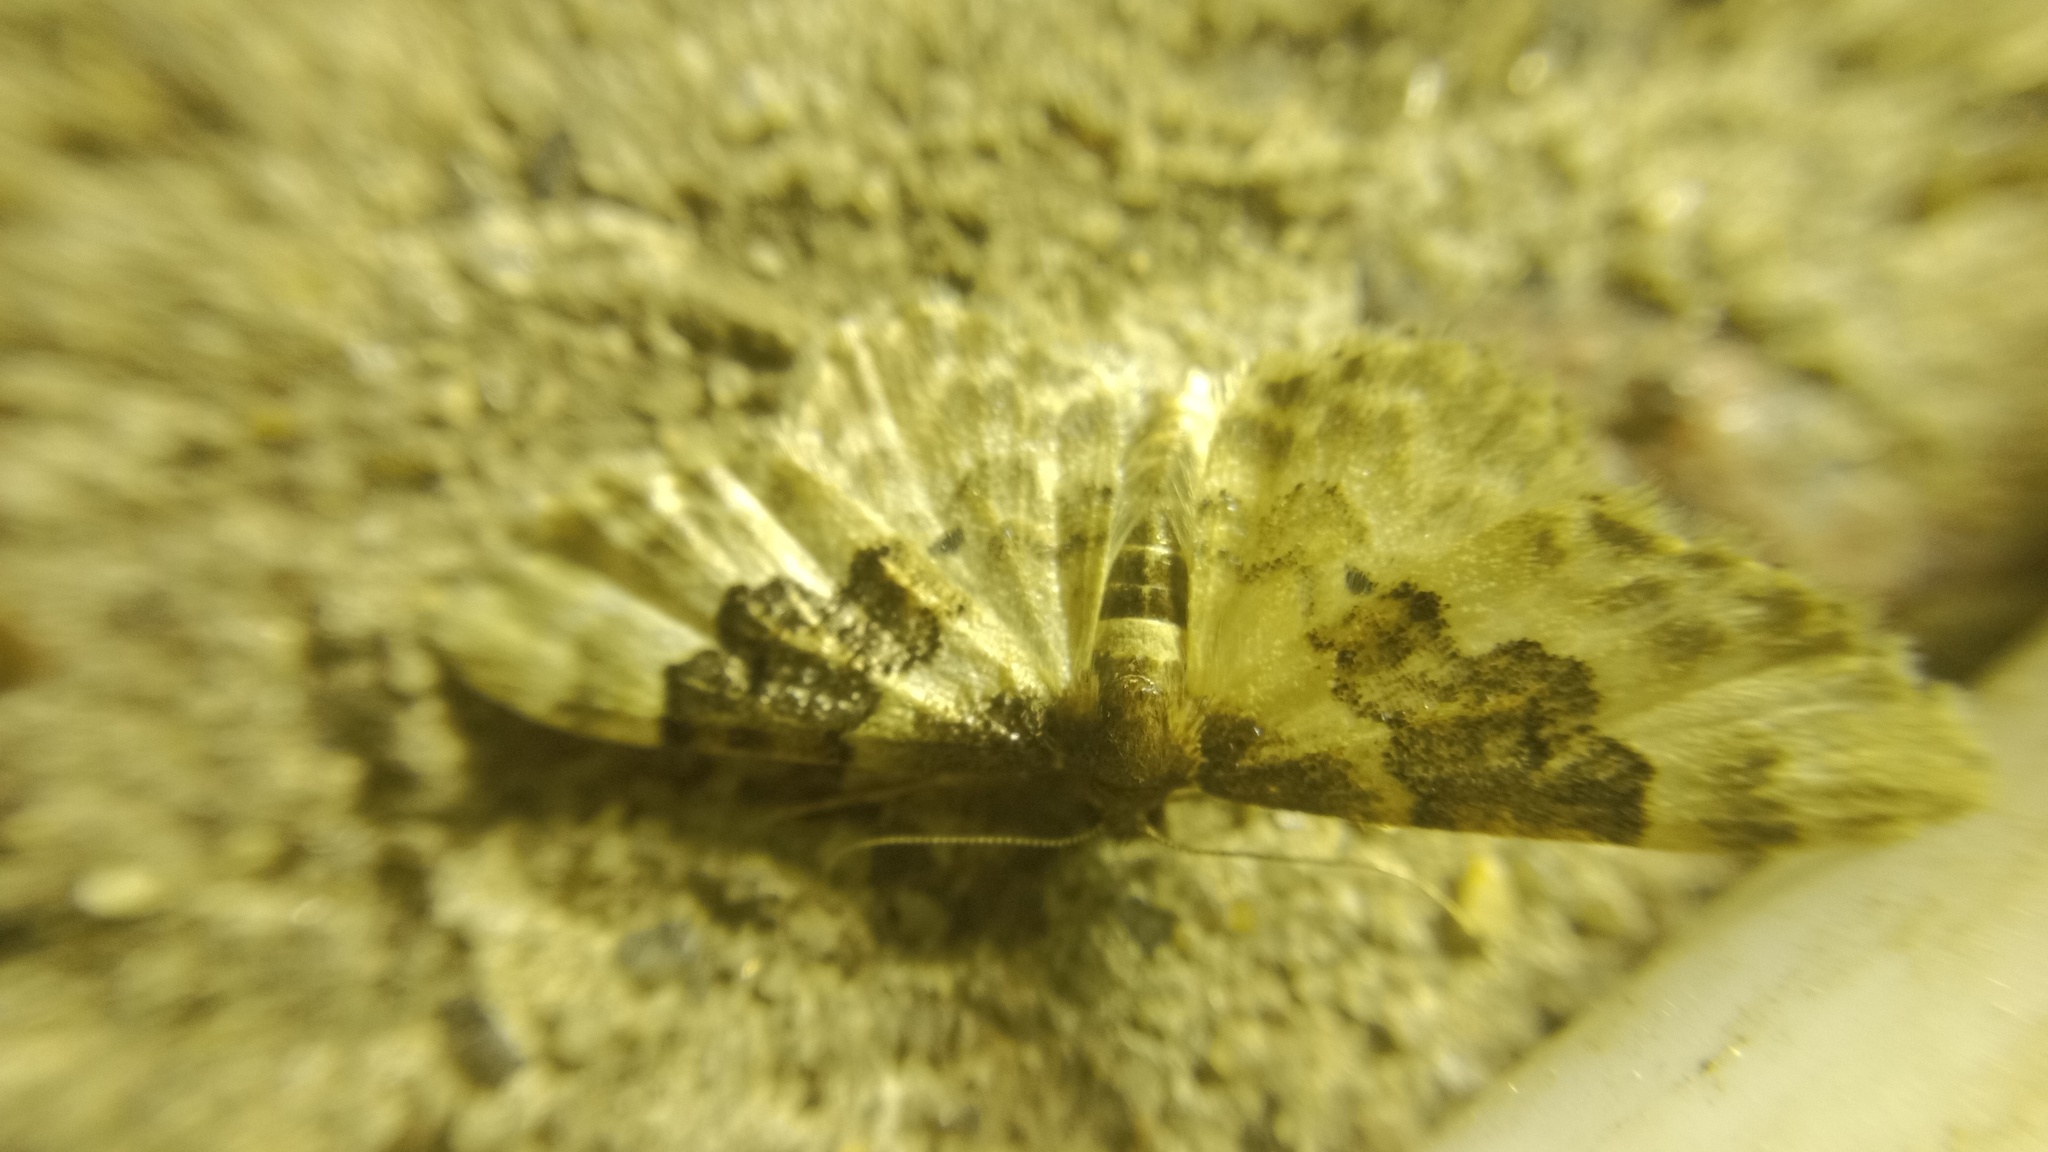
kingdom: Animalia
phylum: Arthropoda
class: Insecta
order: Lepidoptera
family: Geometridae
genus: Idaea
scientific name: Idaea rusticata
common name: Least carpet
